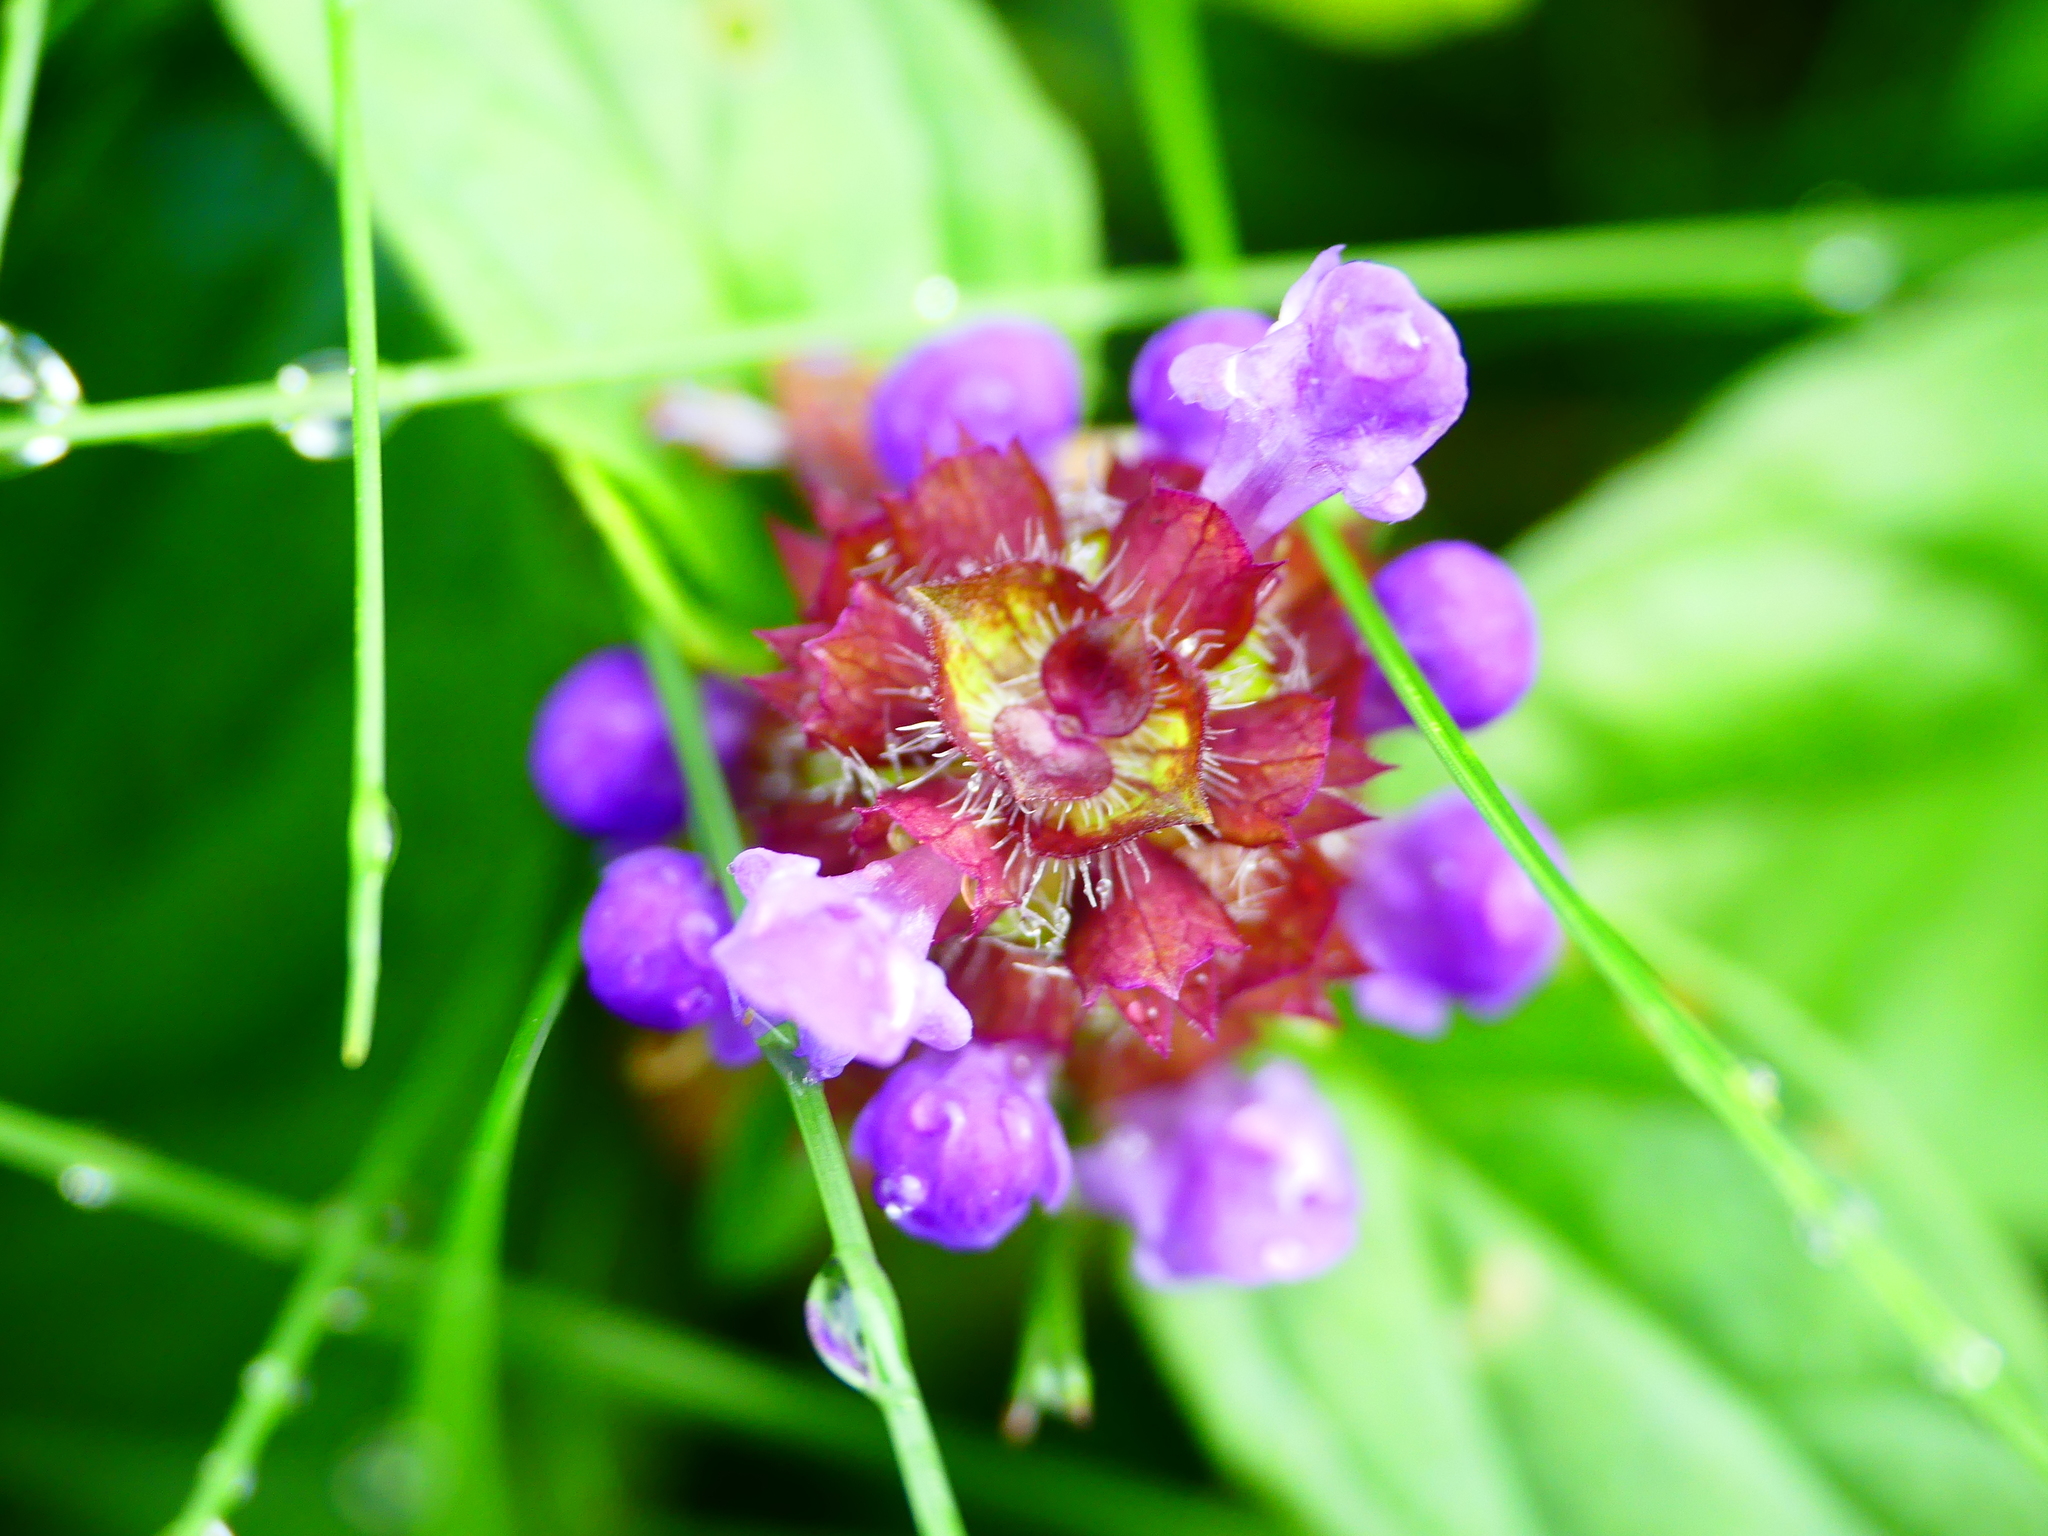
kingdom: Plantae
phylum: Tracheophyta
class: Magnoliopsida
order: Lamiales
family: Lamiaceae
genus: Prunella
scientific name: Prunella vulgaris
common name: Heal-all
